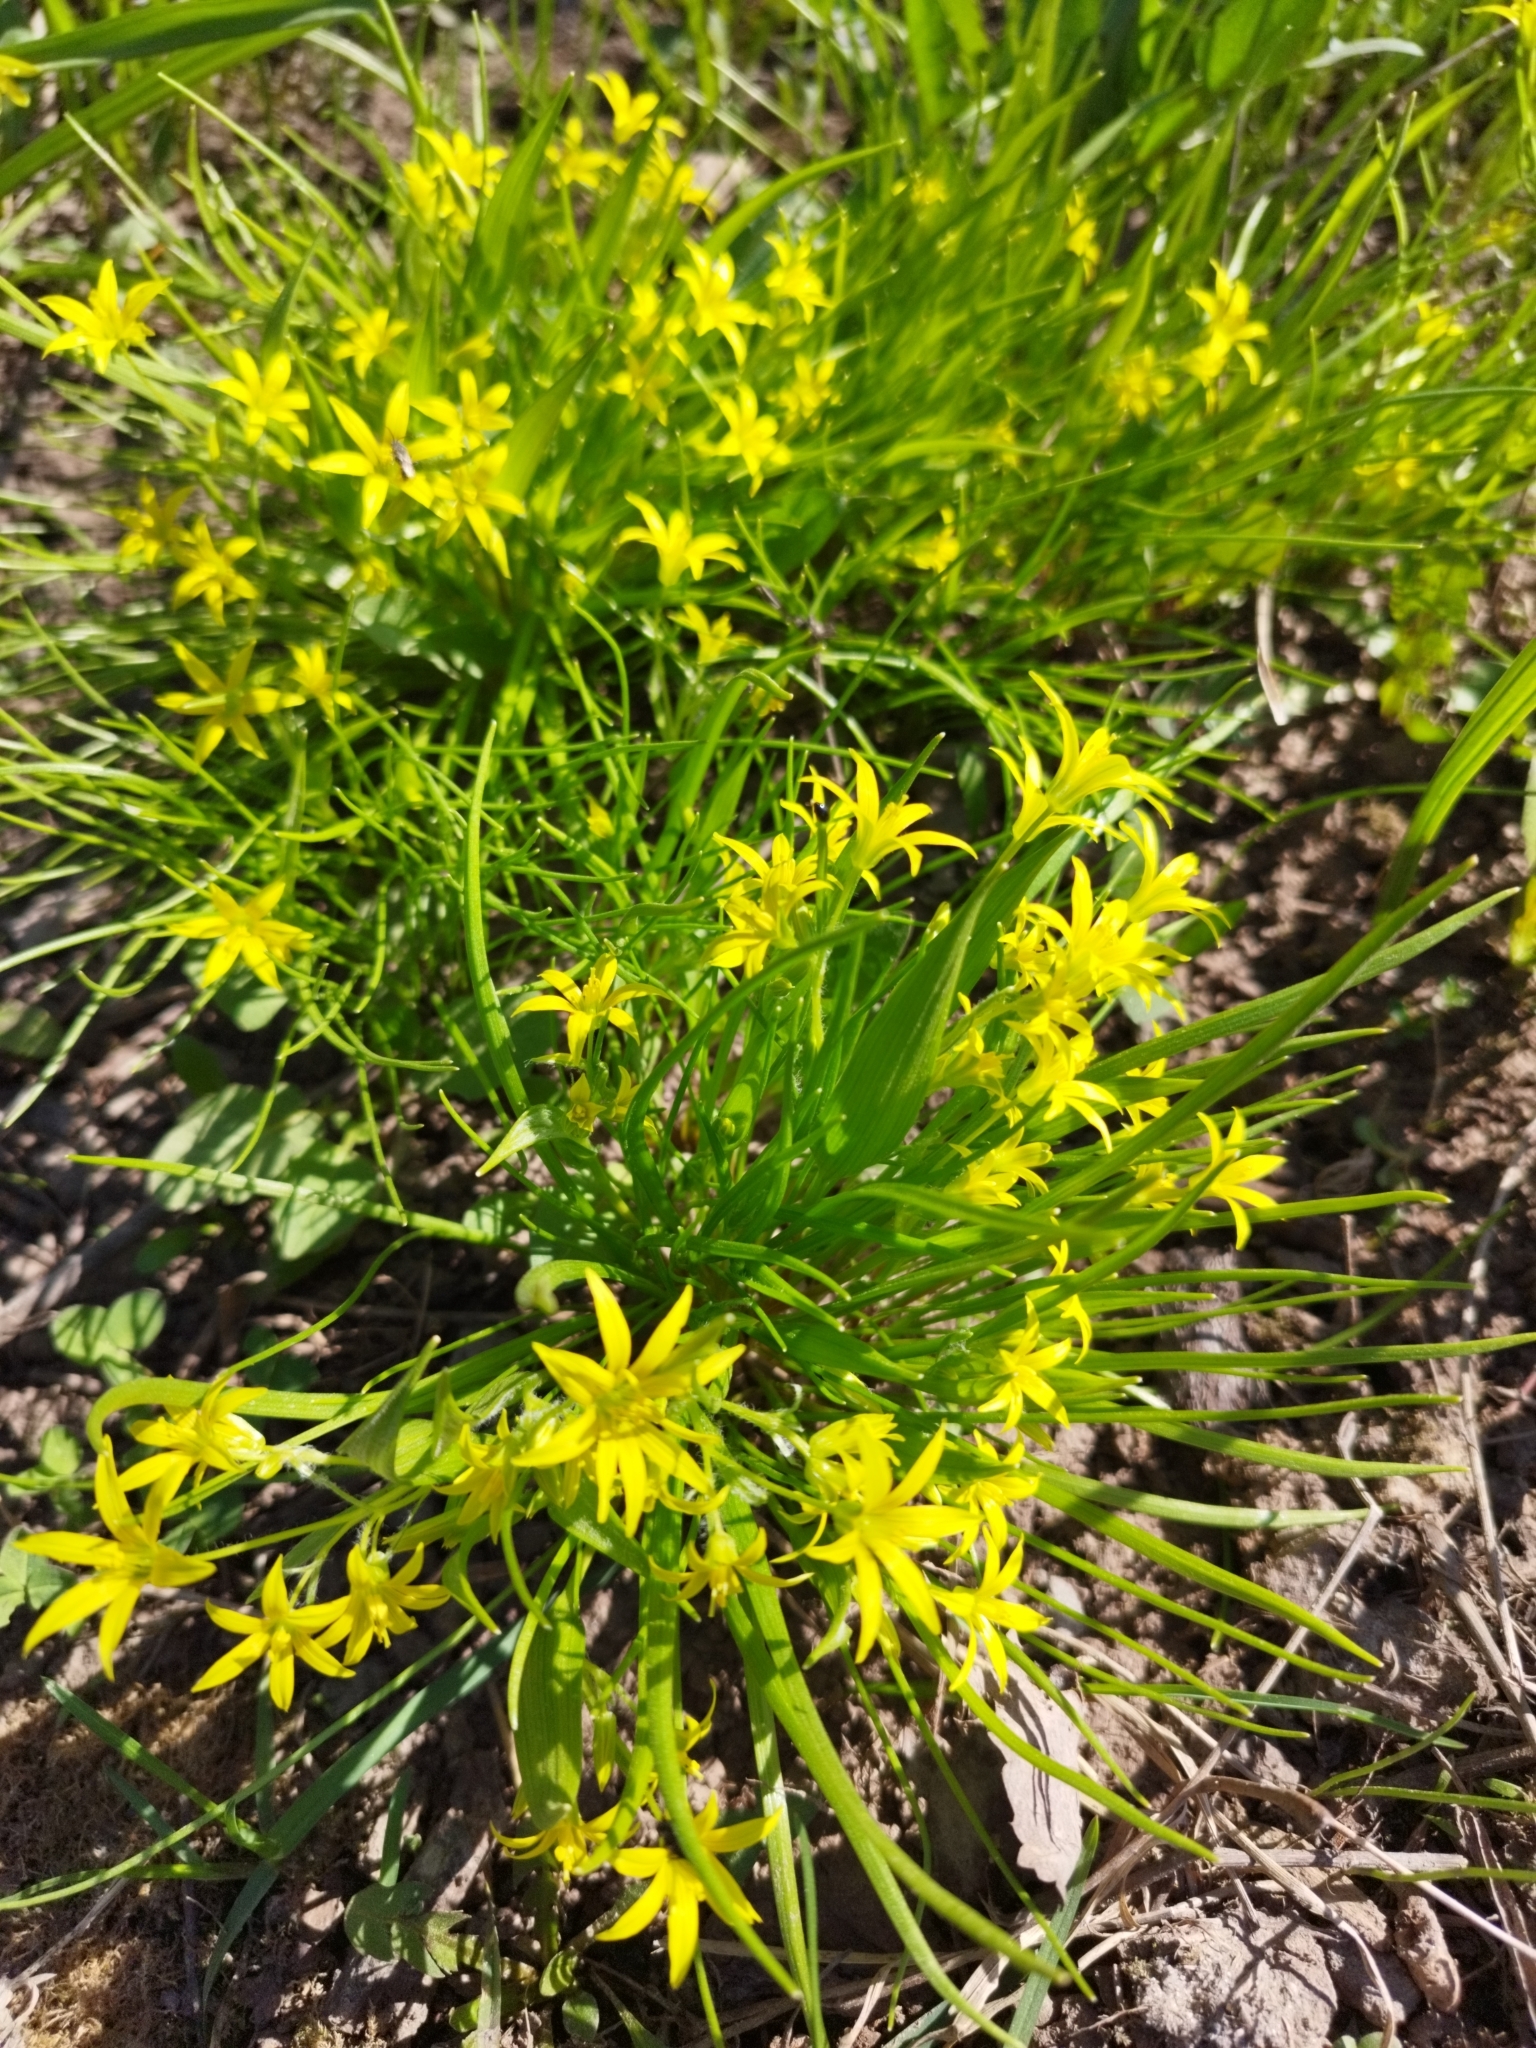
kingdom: Plantae
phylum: Tracheophyta
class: Liliopsida
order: Liliales
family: Liliaceae
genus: Gagea
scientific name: Gagea minima
